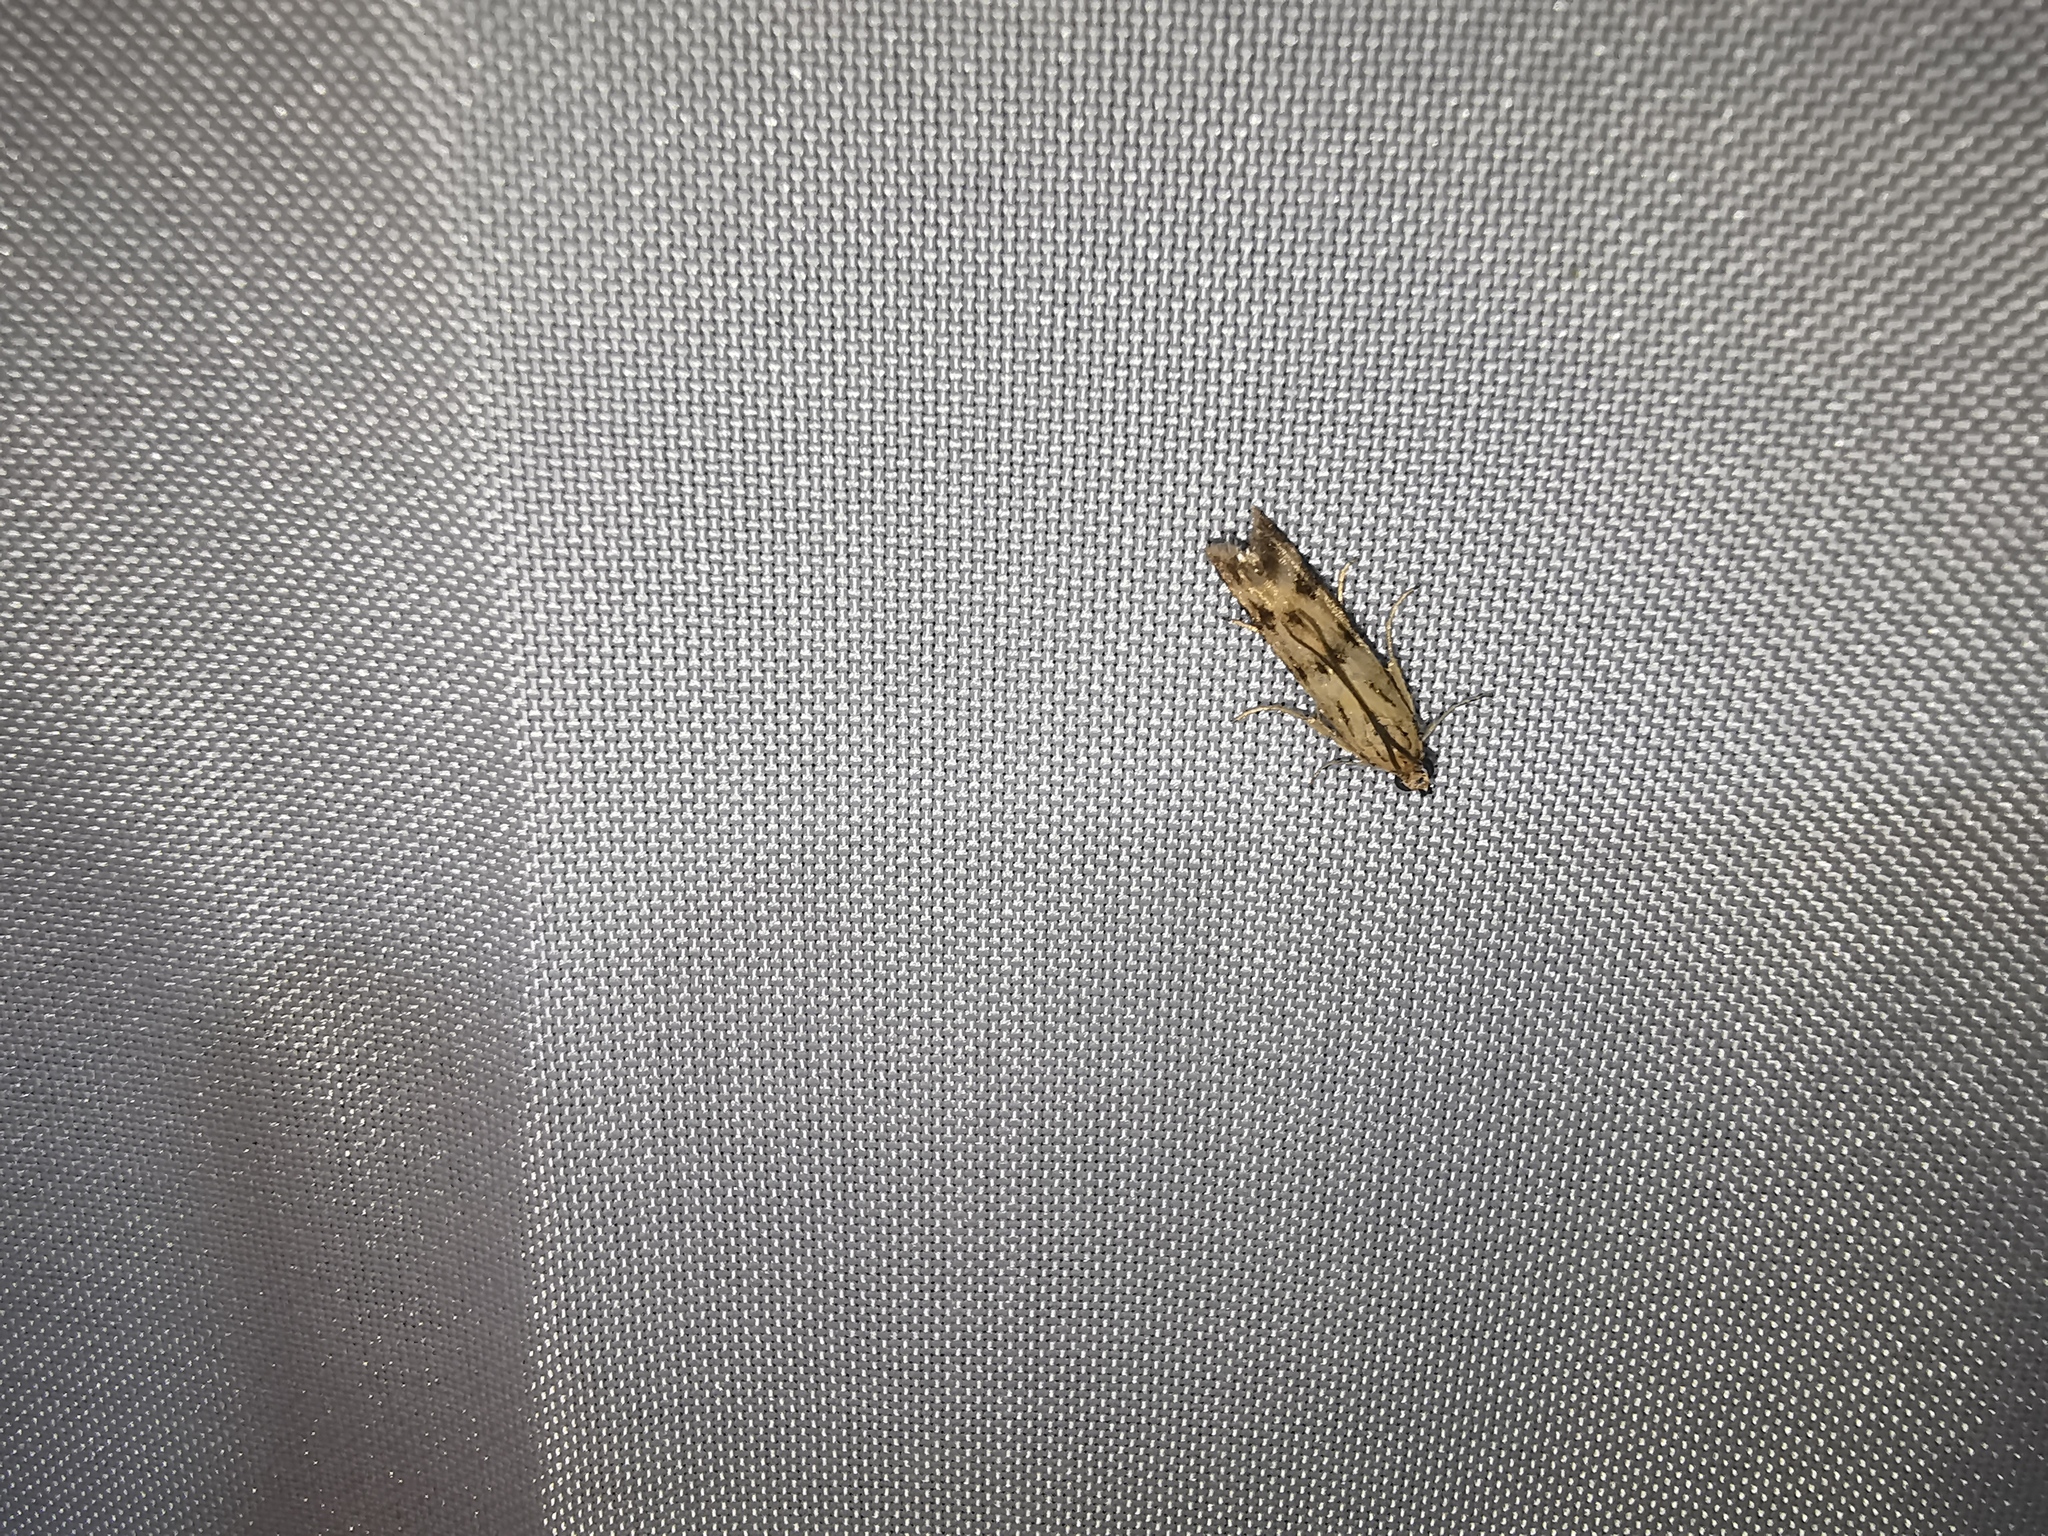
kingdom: Animalia
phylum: Arthropoda
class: Insecta
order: Lepidoptera
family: Pyralidae
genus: Homoeosoma
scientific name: Homoeosoma sinuella
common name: Twin-barred knot-horn
